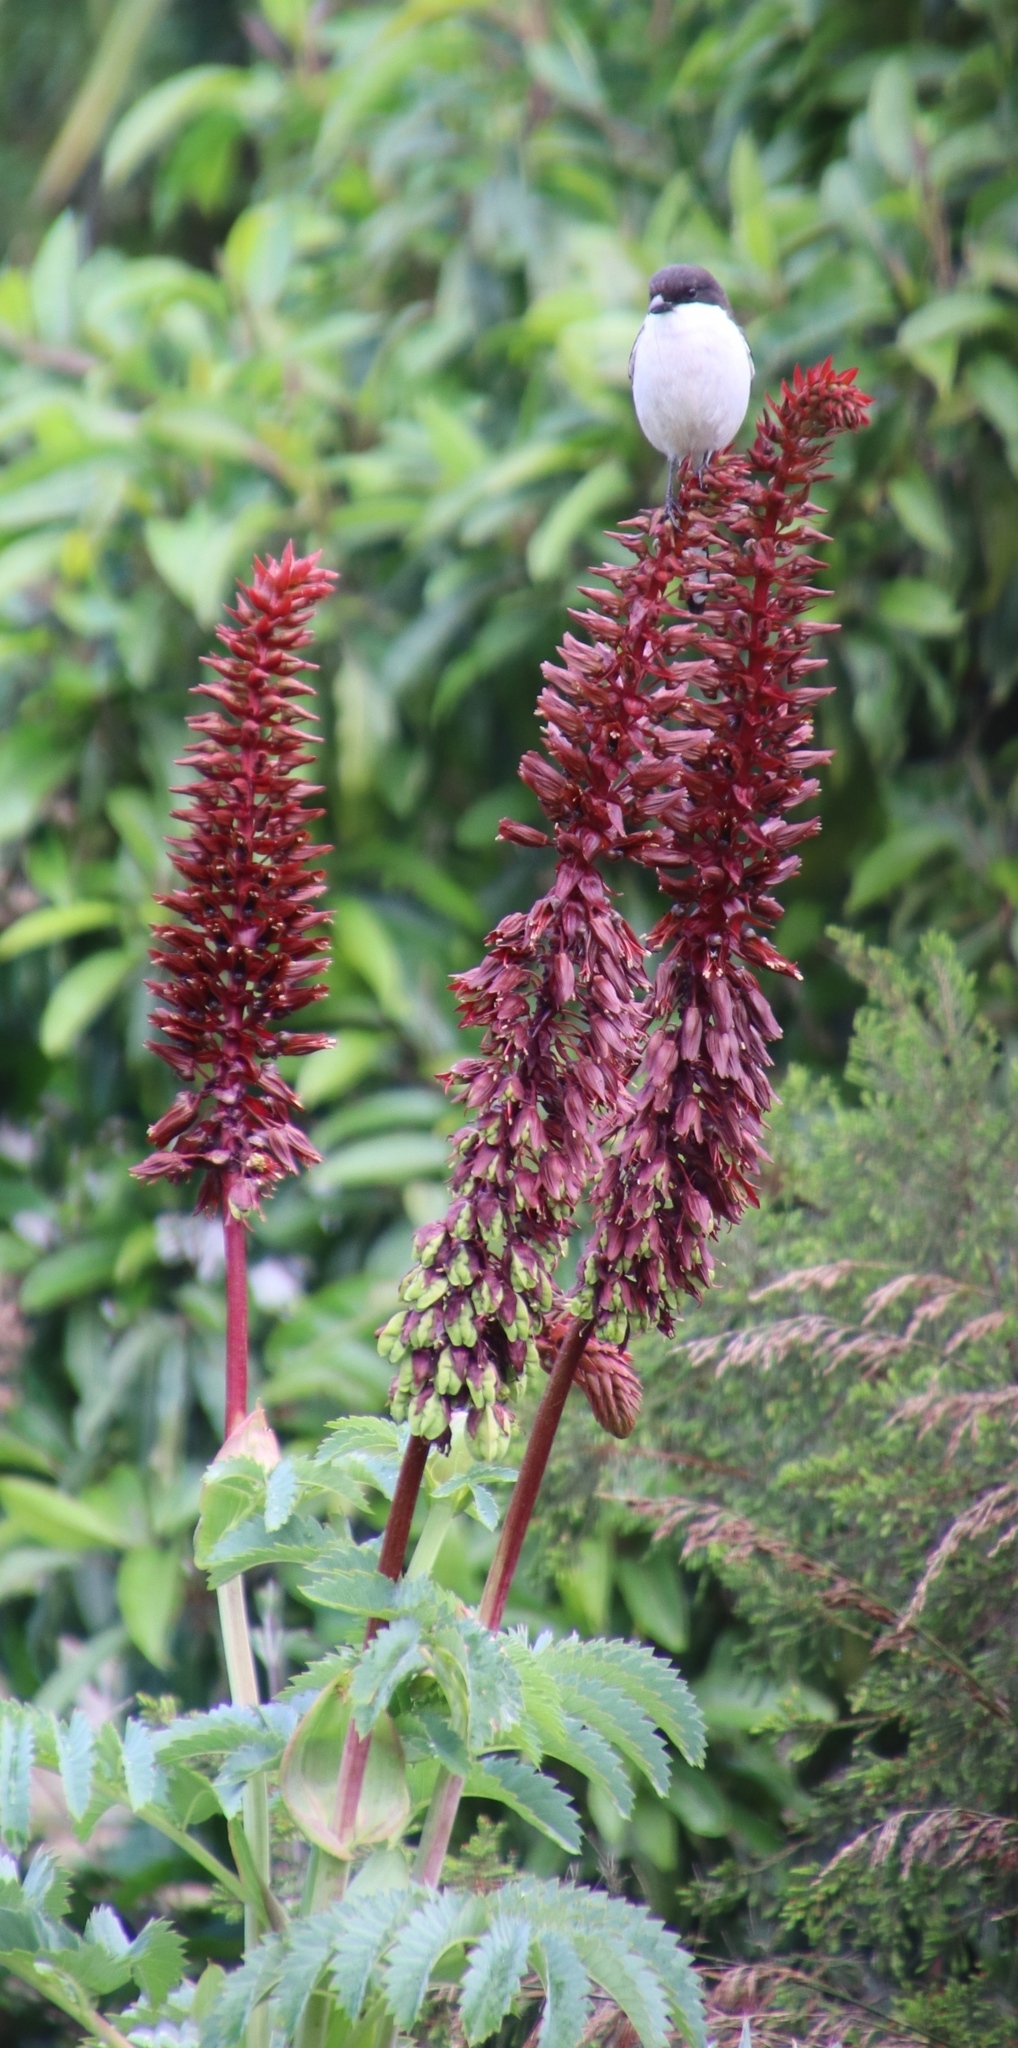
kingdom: Animalia
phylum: Chordata
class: Aves
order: Passeriformes
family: Laniidae
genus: Lanius
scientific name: Lanius collaris
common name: Southern fiscal
